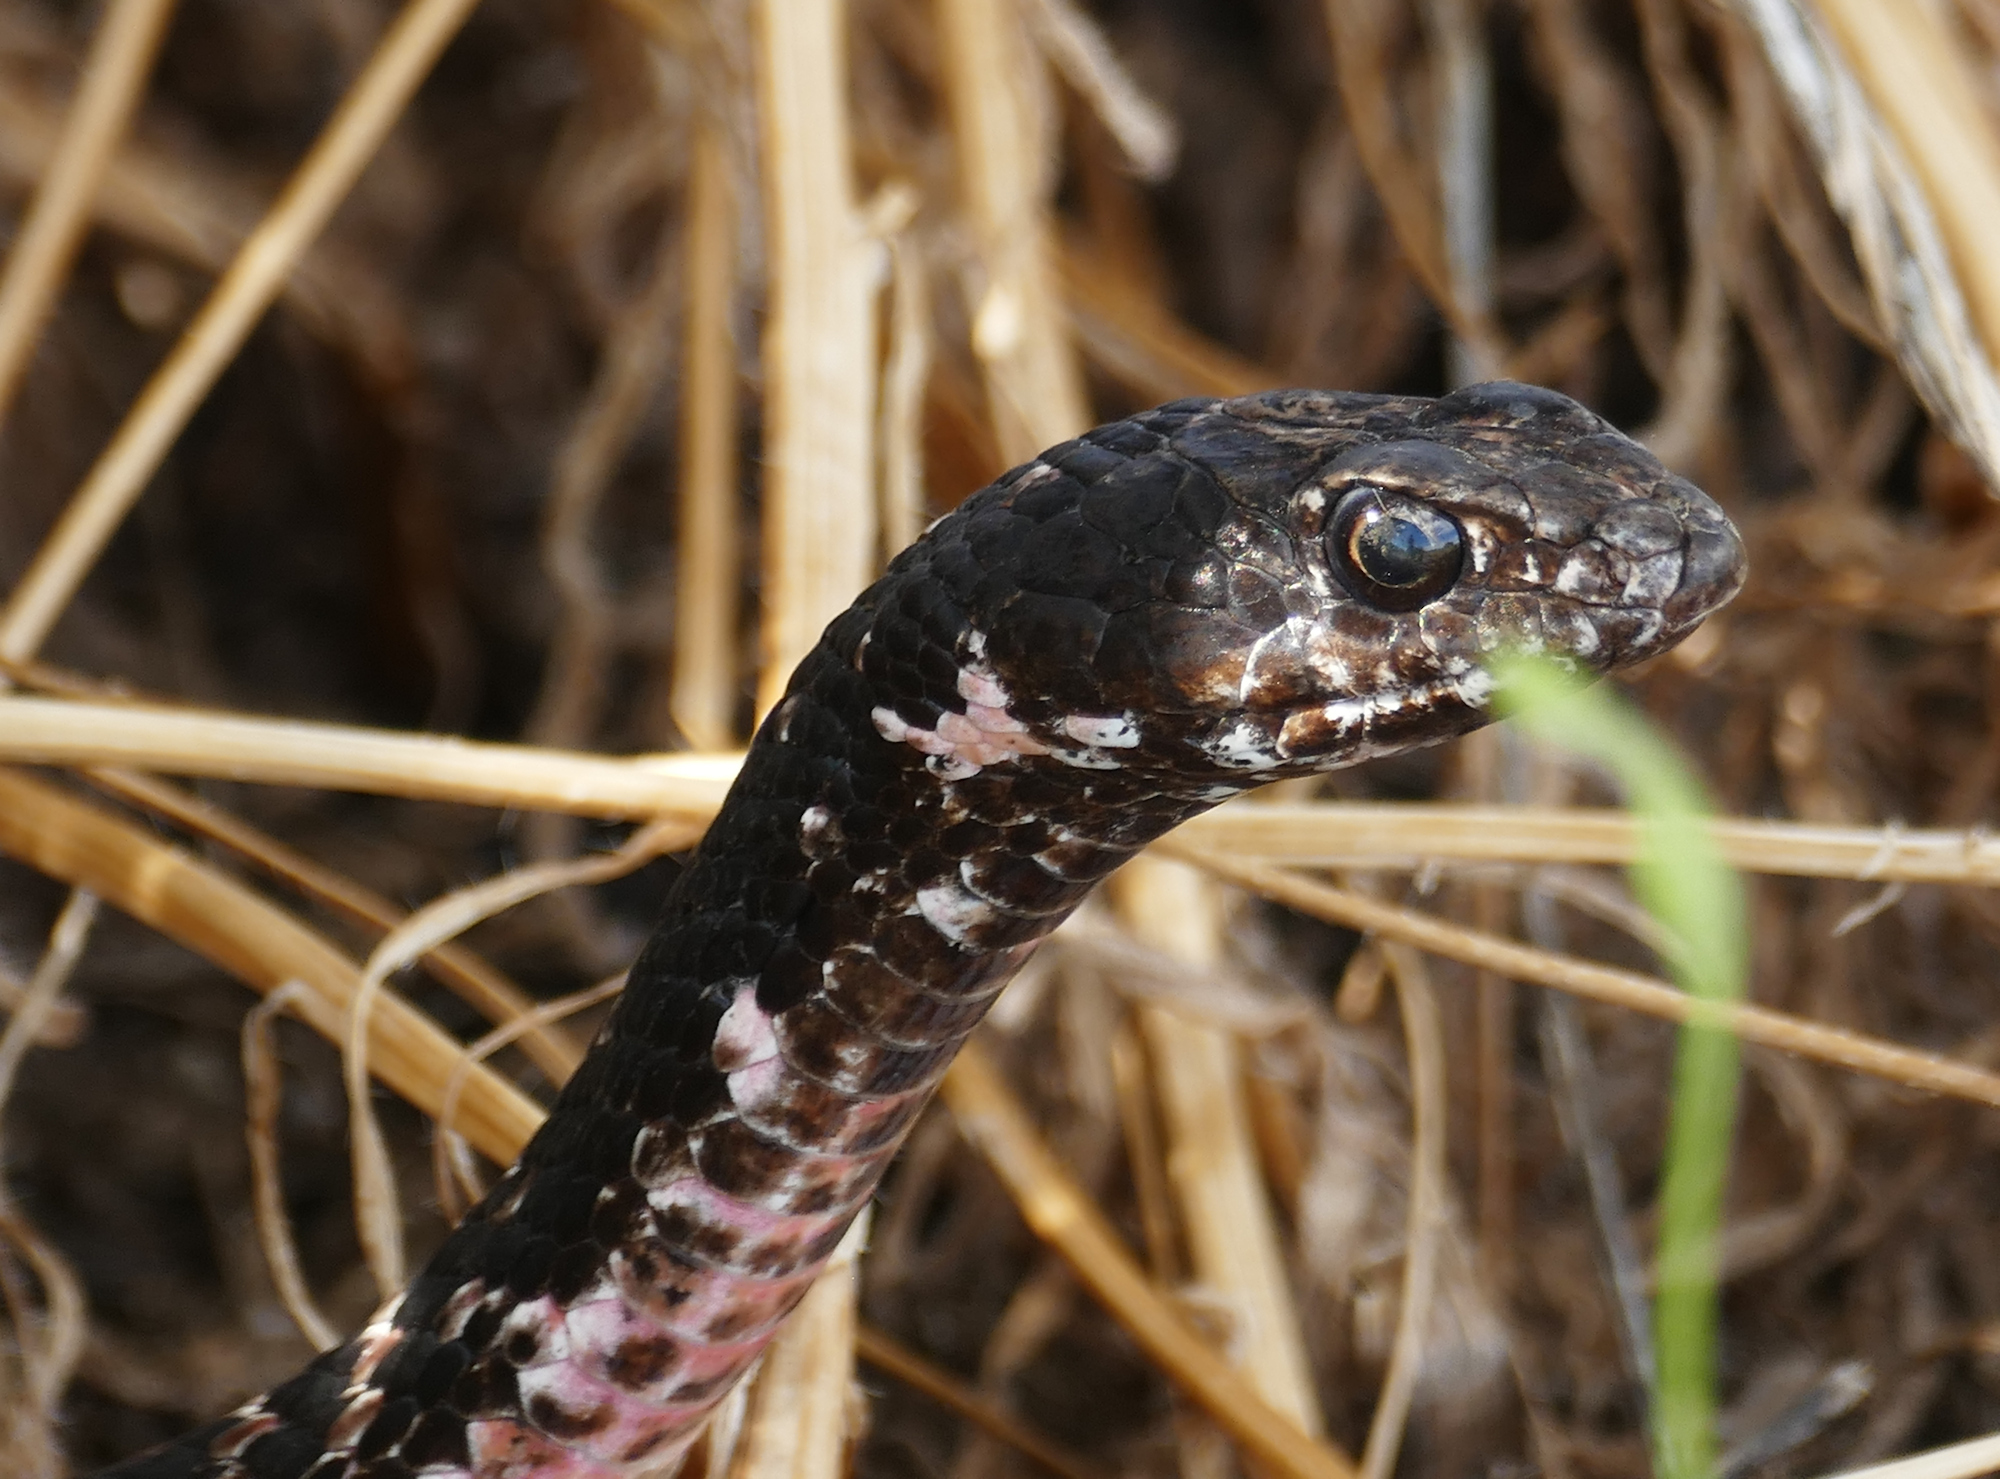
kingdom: Animalia
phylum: Chordata
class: Squamata
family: Colubridae
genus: Masticophis
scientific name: Masticophis flagellum
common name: Coachwhip
